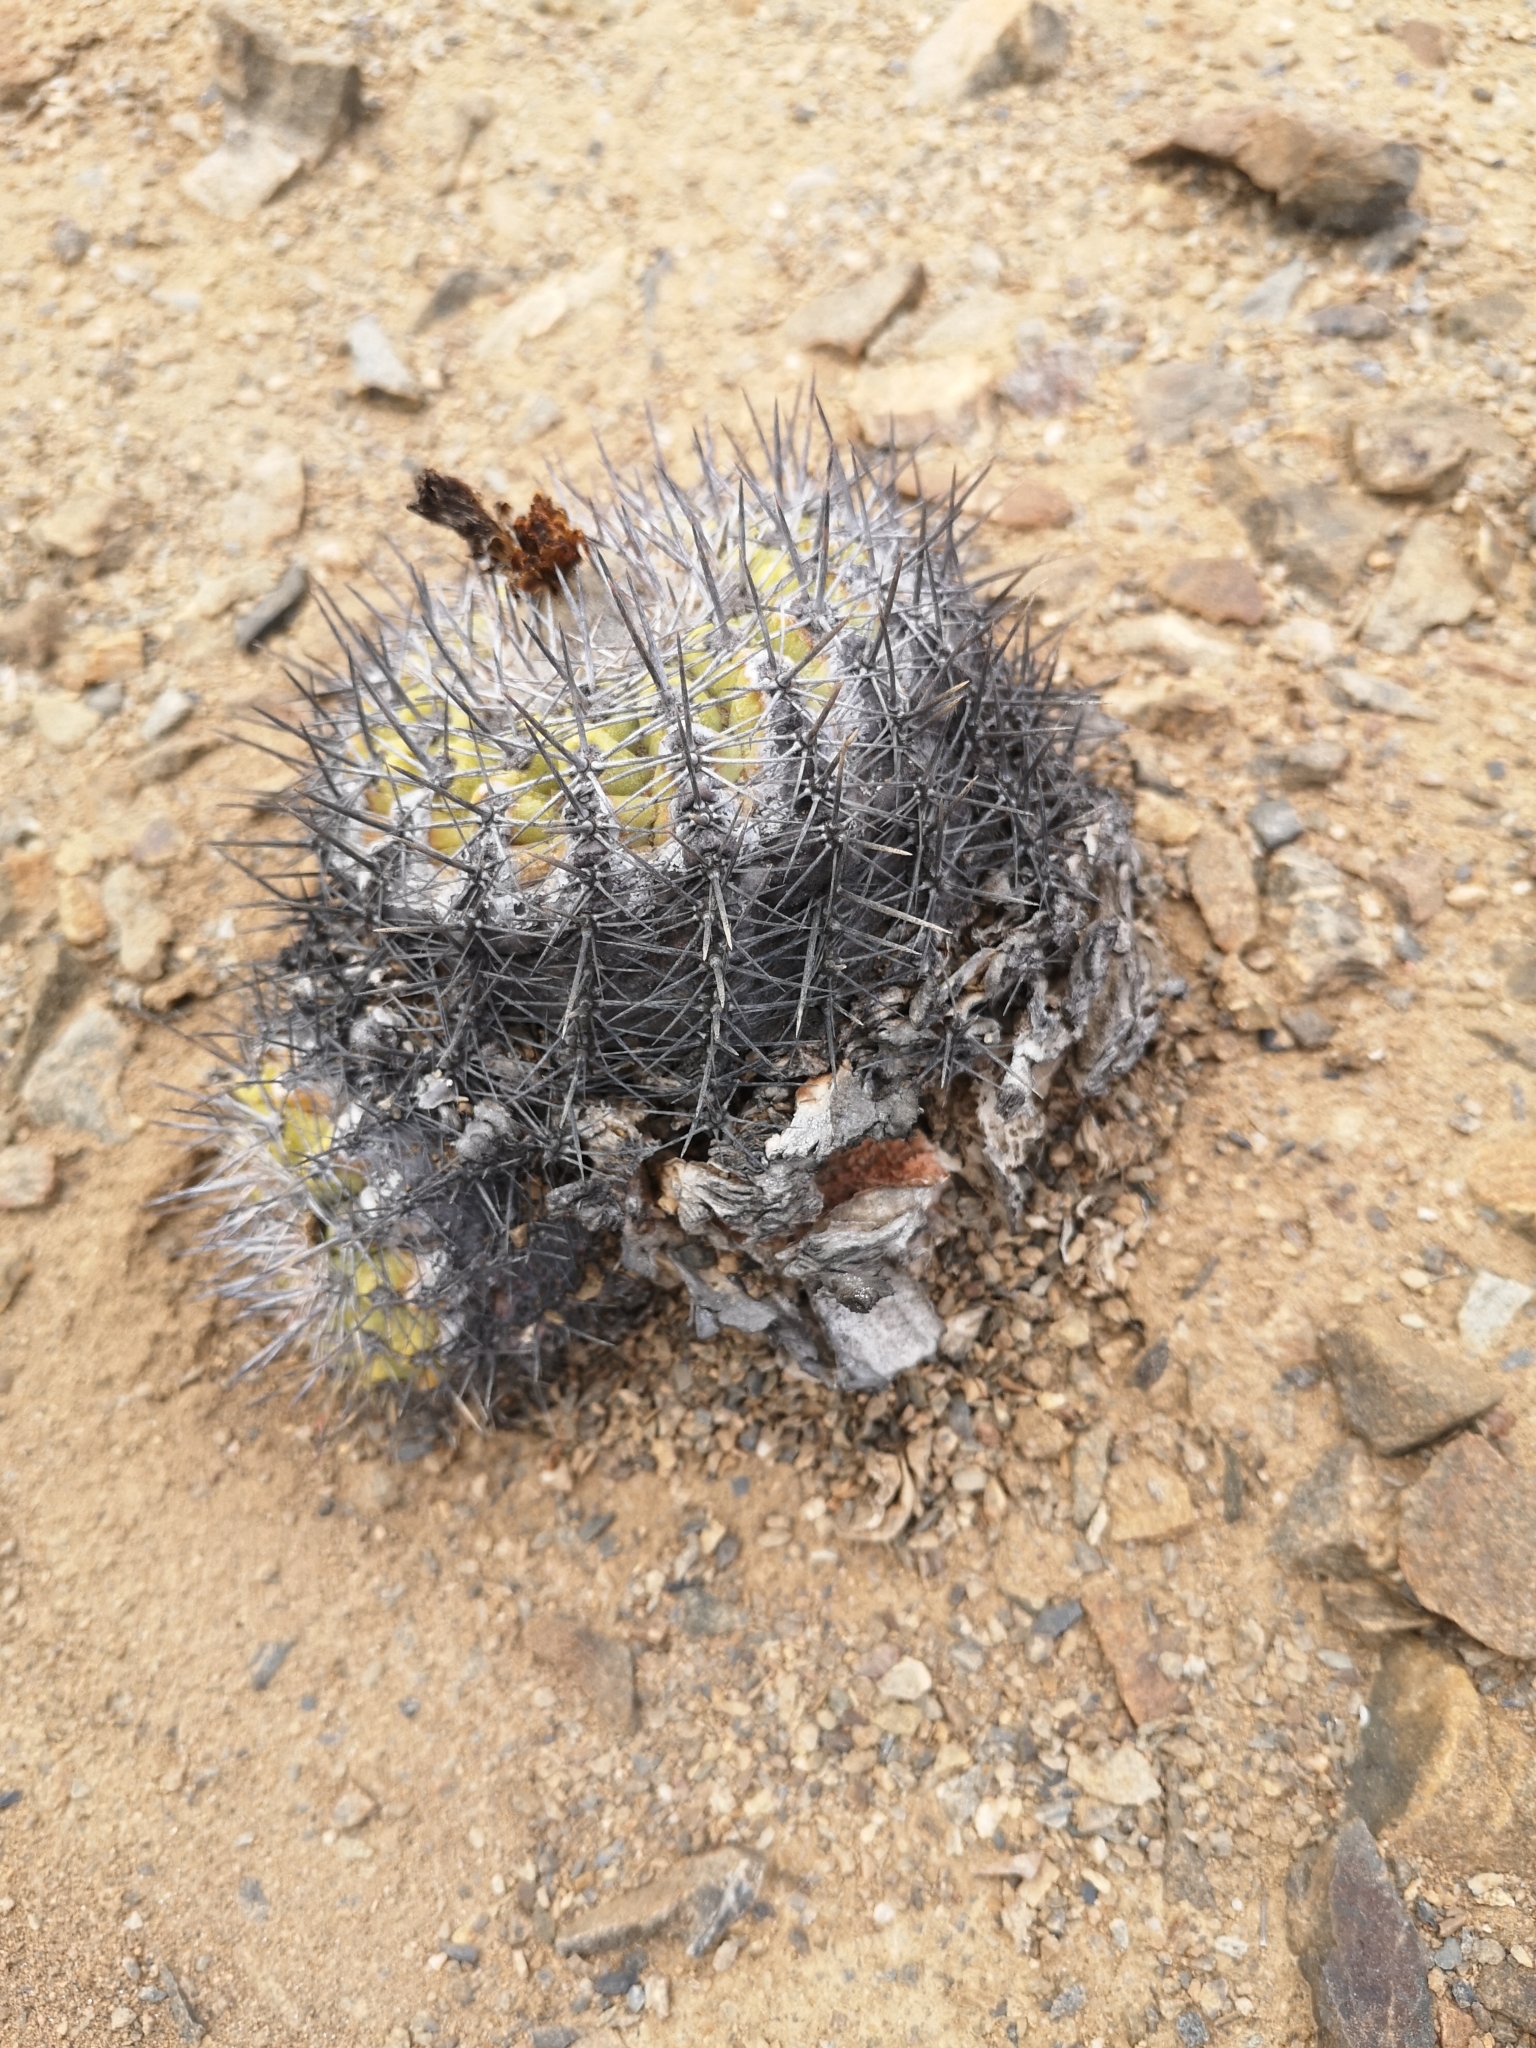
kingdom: Plantae
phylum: Tracheophyta
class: Magnoliopsida
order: Caryophyllales
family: Cactaceae
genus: Copiapoa
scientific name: Copiapoa cinerascens
